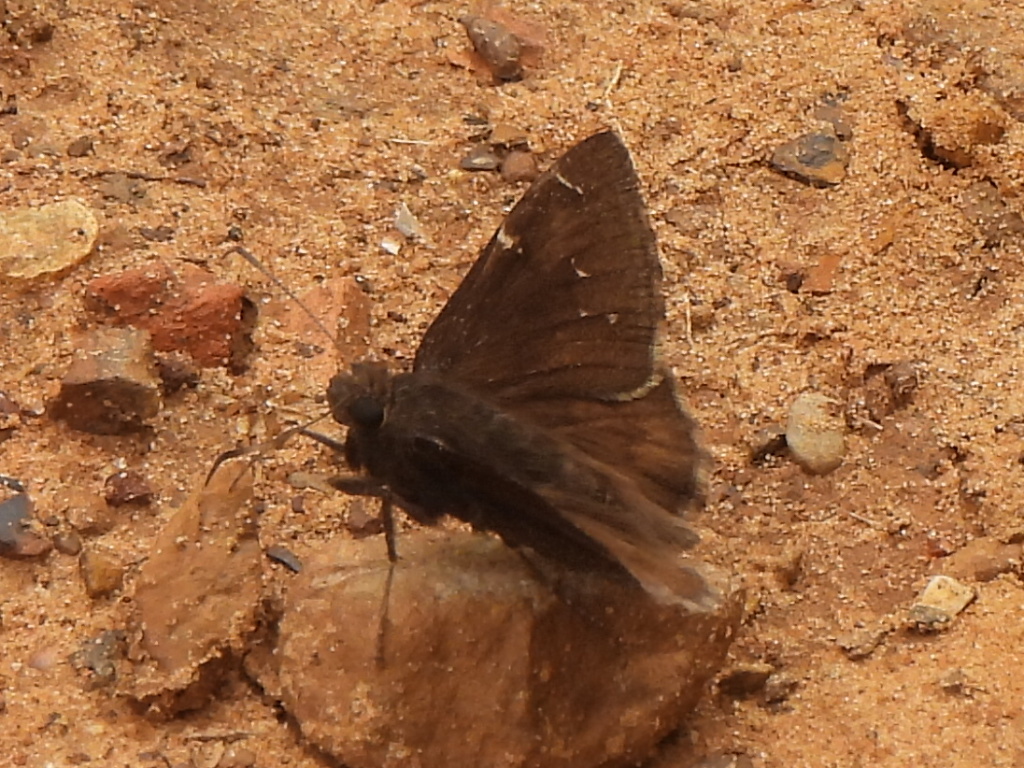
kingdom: Animalia
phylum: Arthropoda
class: Insecta
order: Lepidoptera
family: Hesperiidae
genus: Thorybes
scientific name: Thorybes pylades
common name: Northern cloudywing
